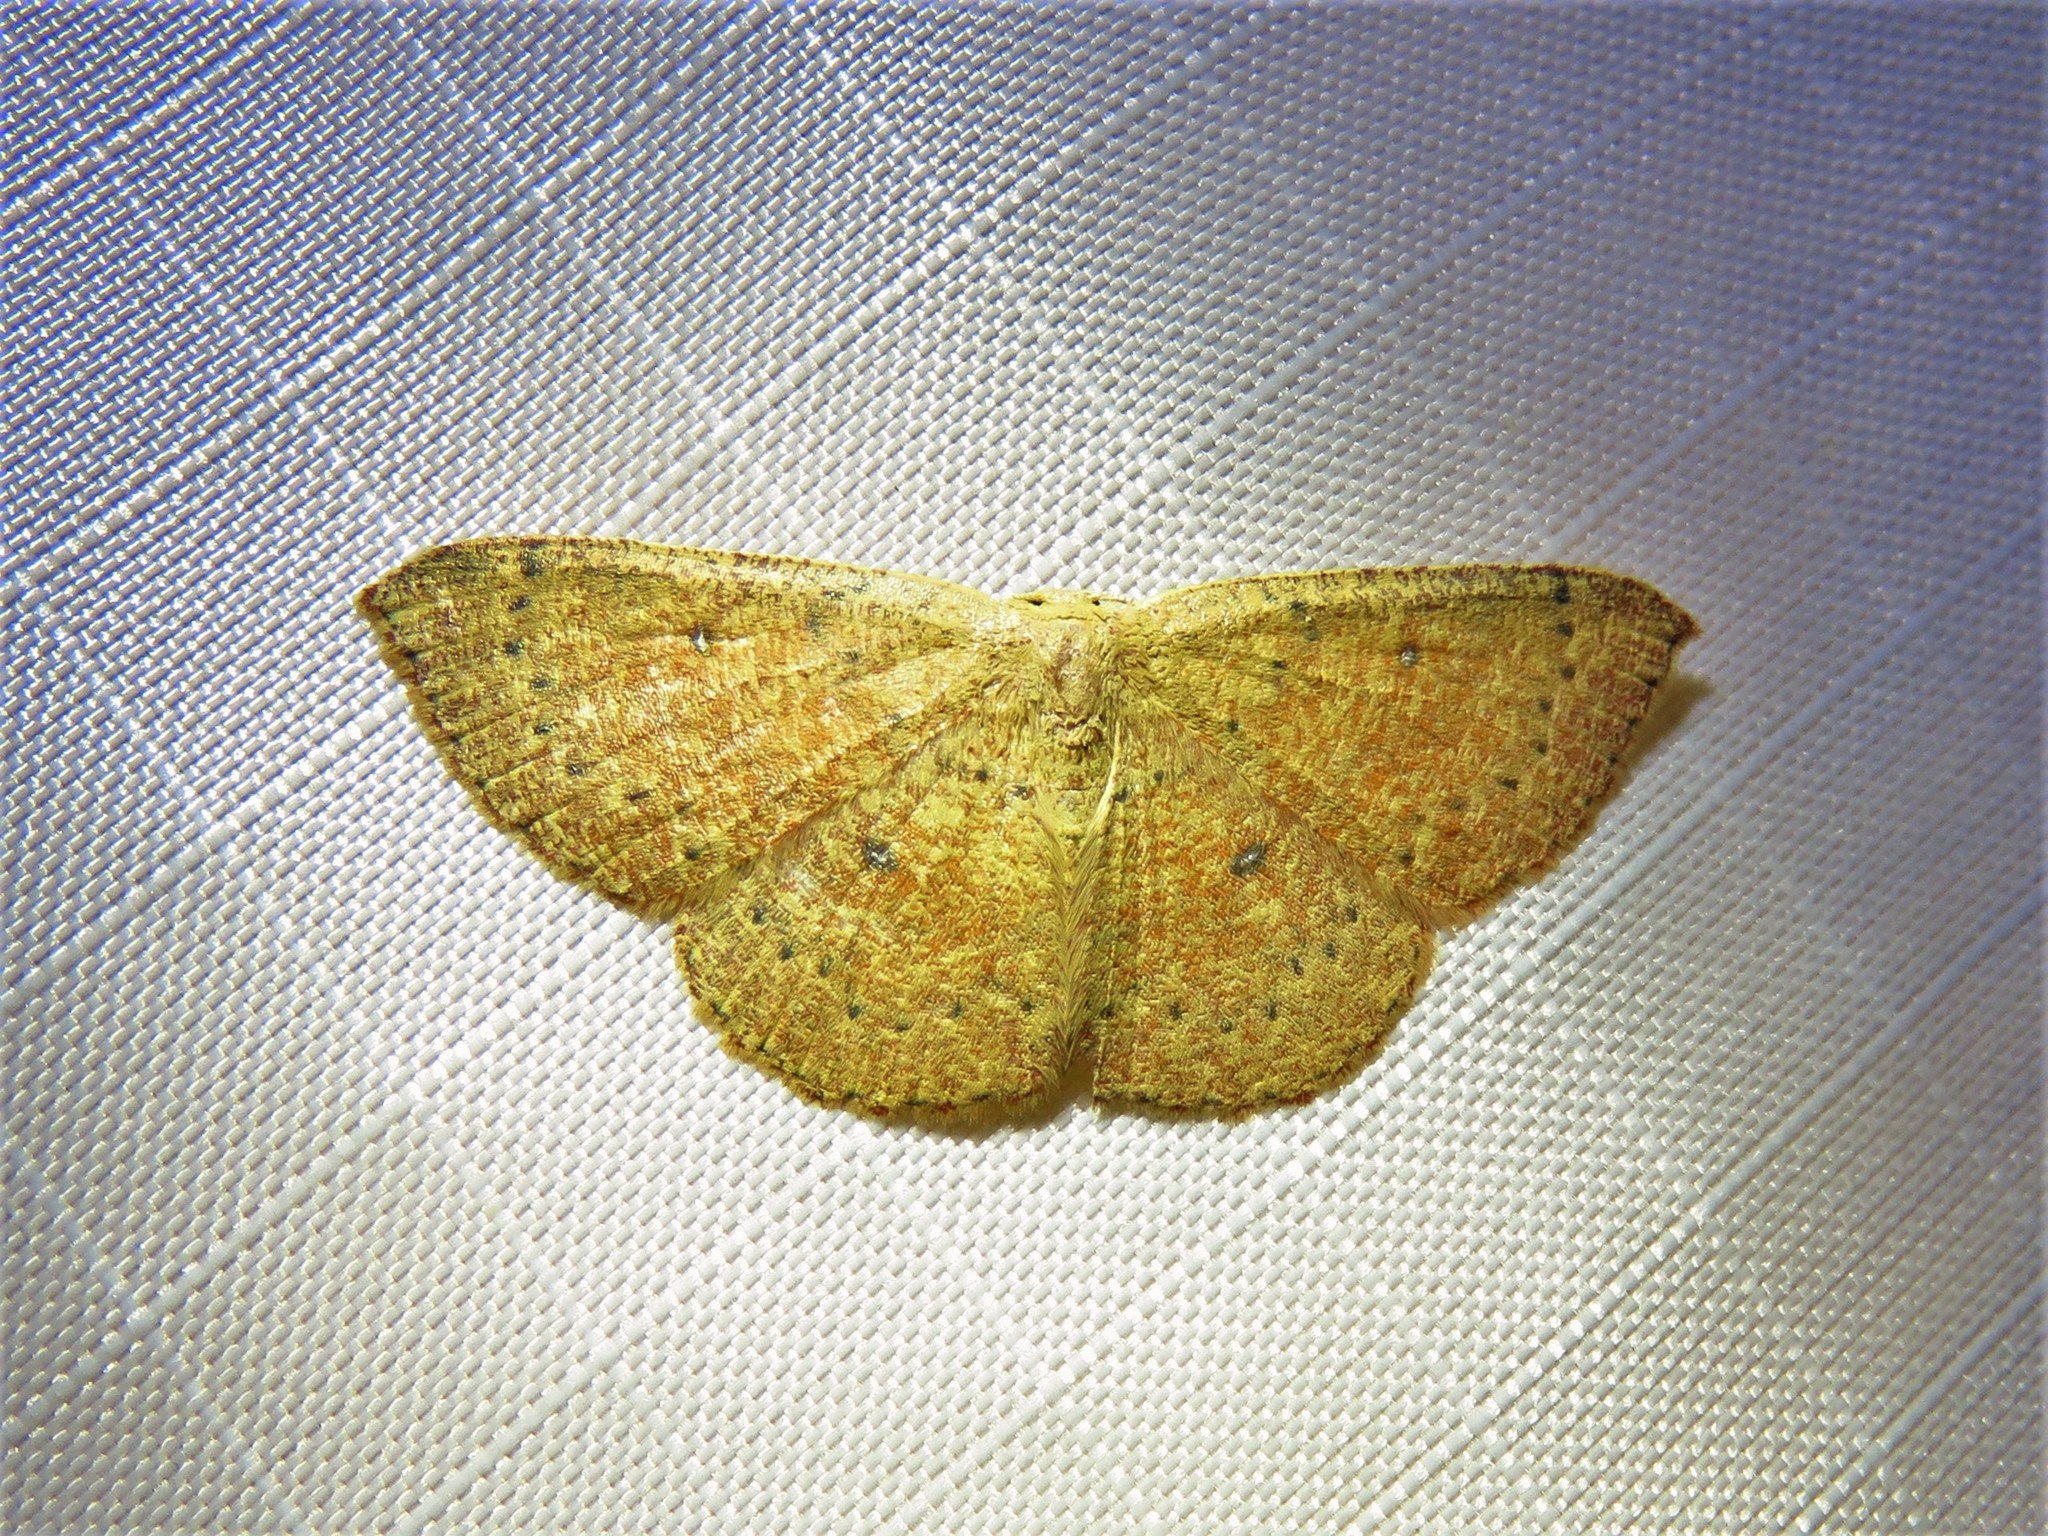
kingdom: Animalia
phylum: Arthropoda
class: Insecta
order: Lepidoptera
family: Geometridae
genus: Cyclophora
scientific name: Cyclophora packardi
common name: Packard's wave
